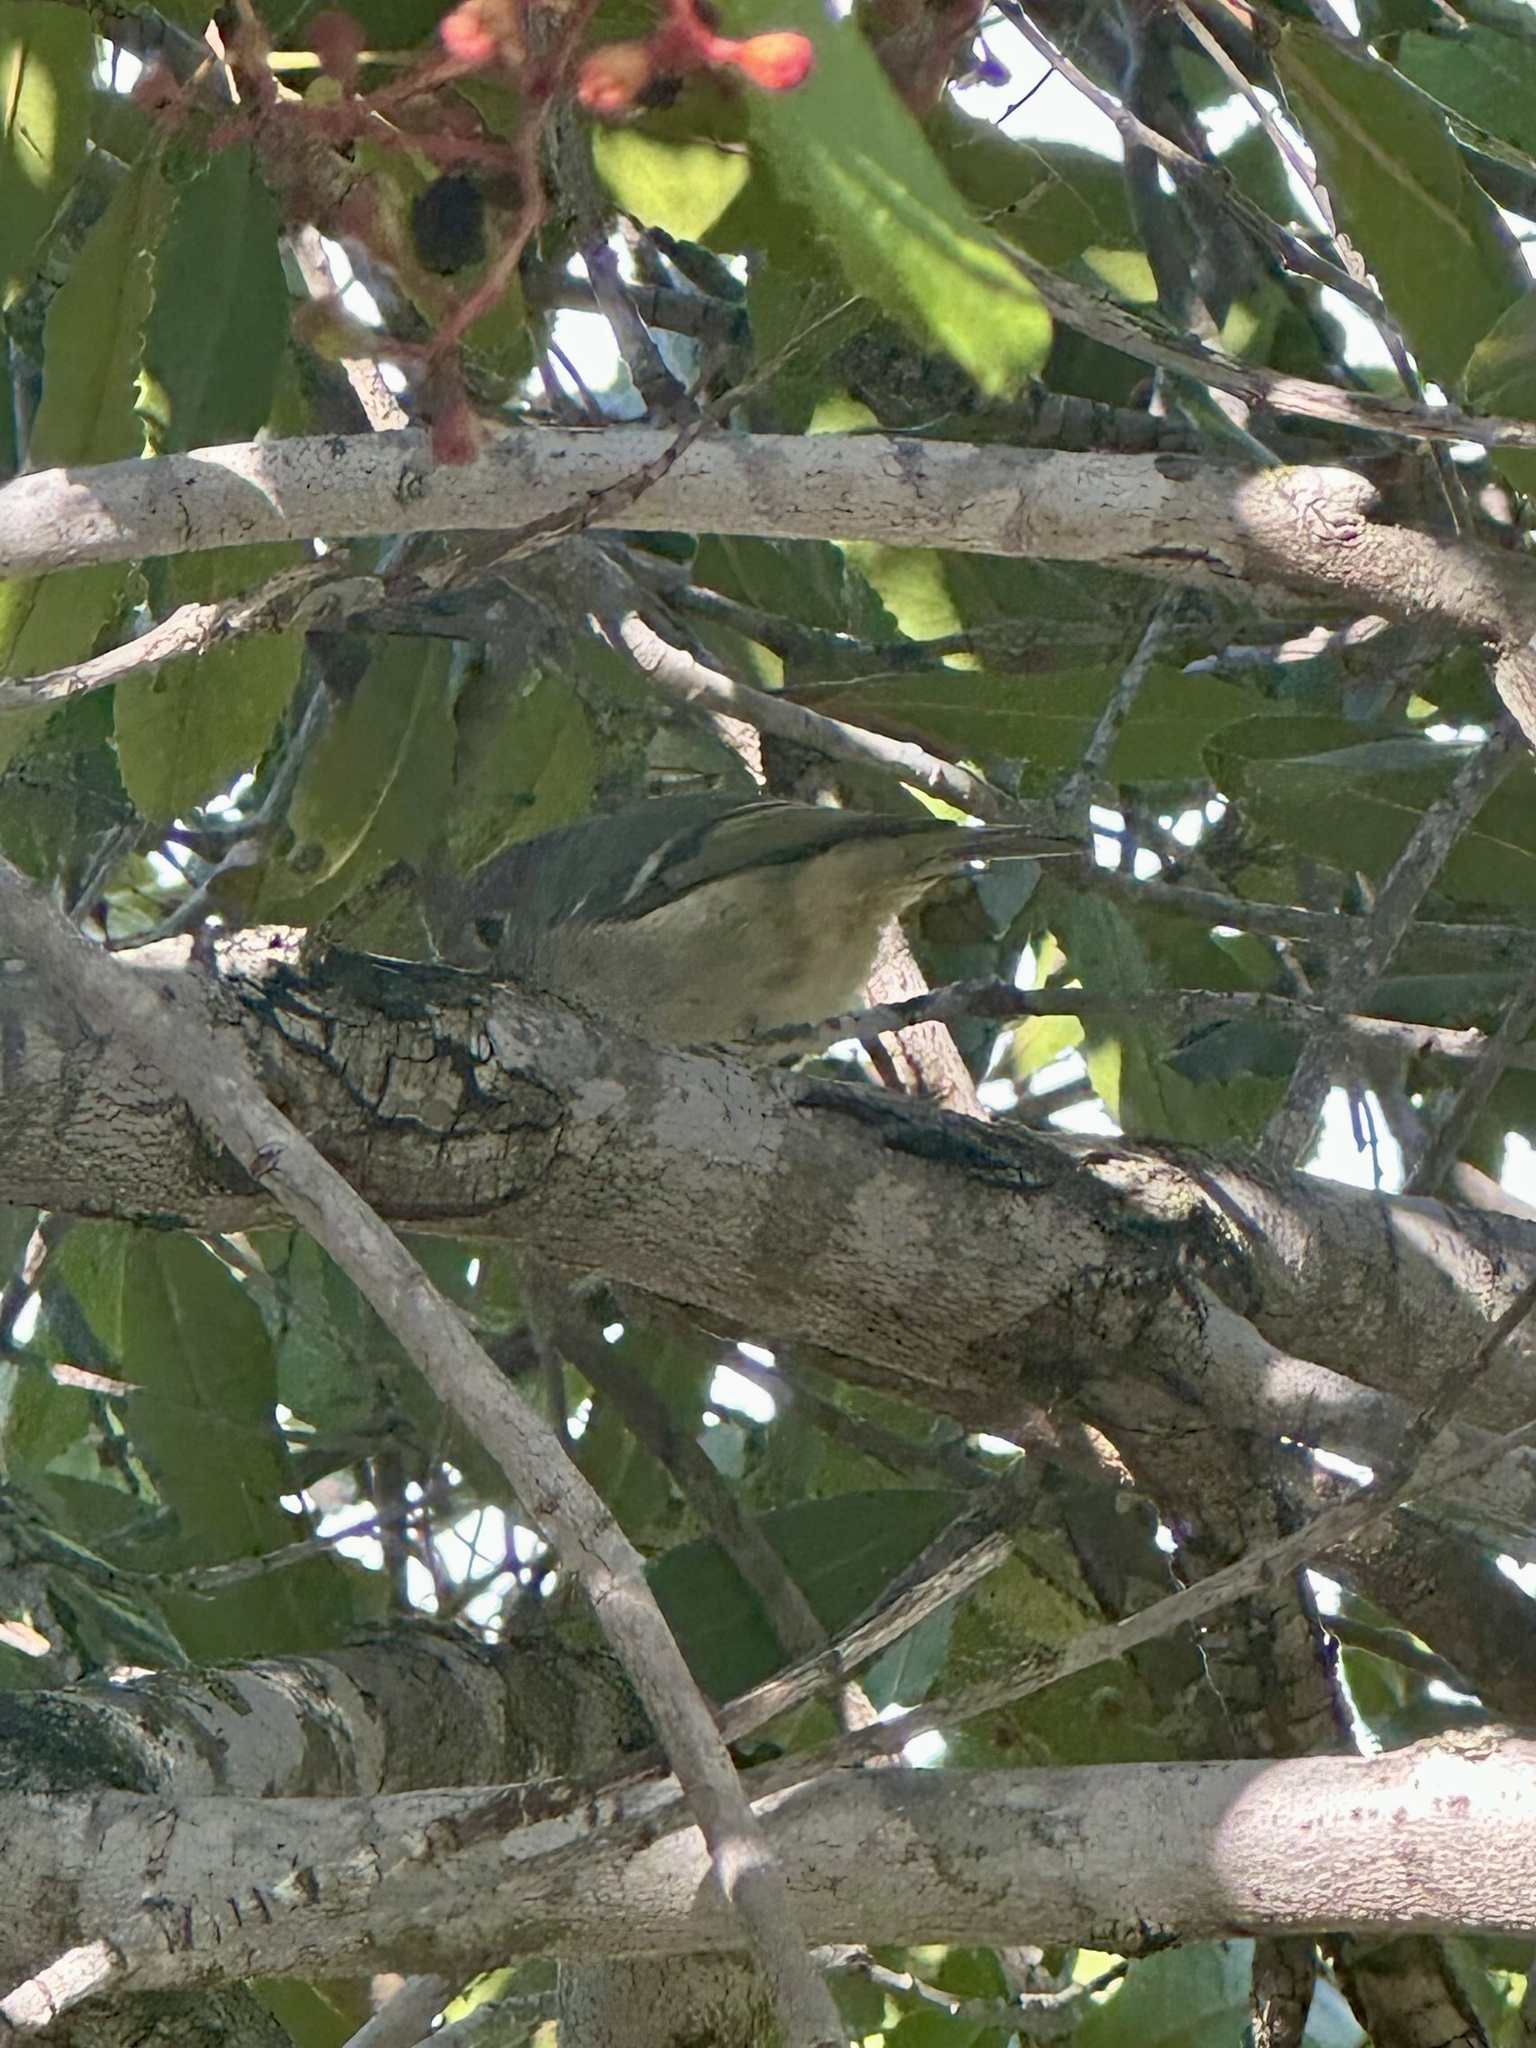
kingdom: Animalia
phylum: Chordata
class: Aves
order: Passeriformes
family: Regulidae
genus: Regulus
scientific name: Regulus calendula
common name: Ruby-crowned kinglet
